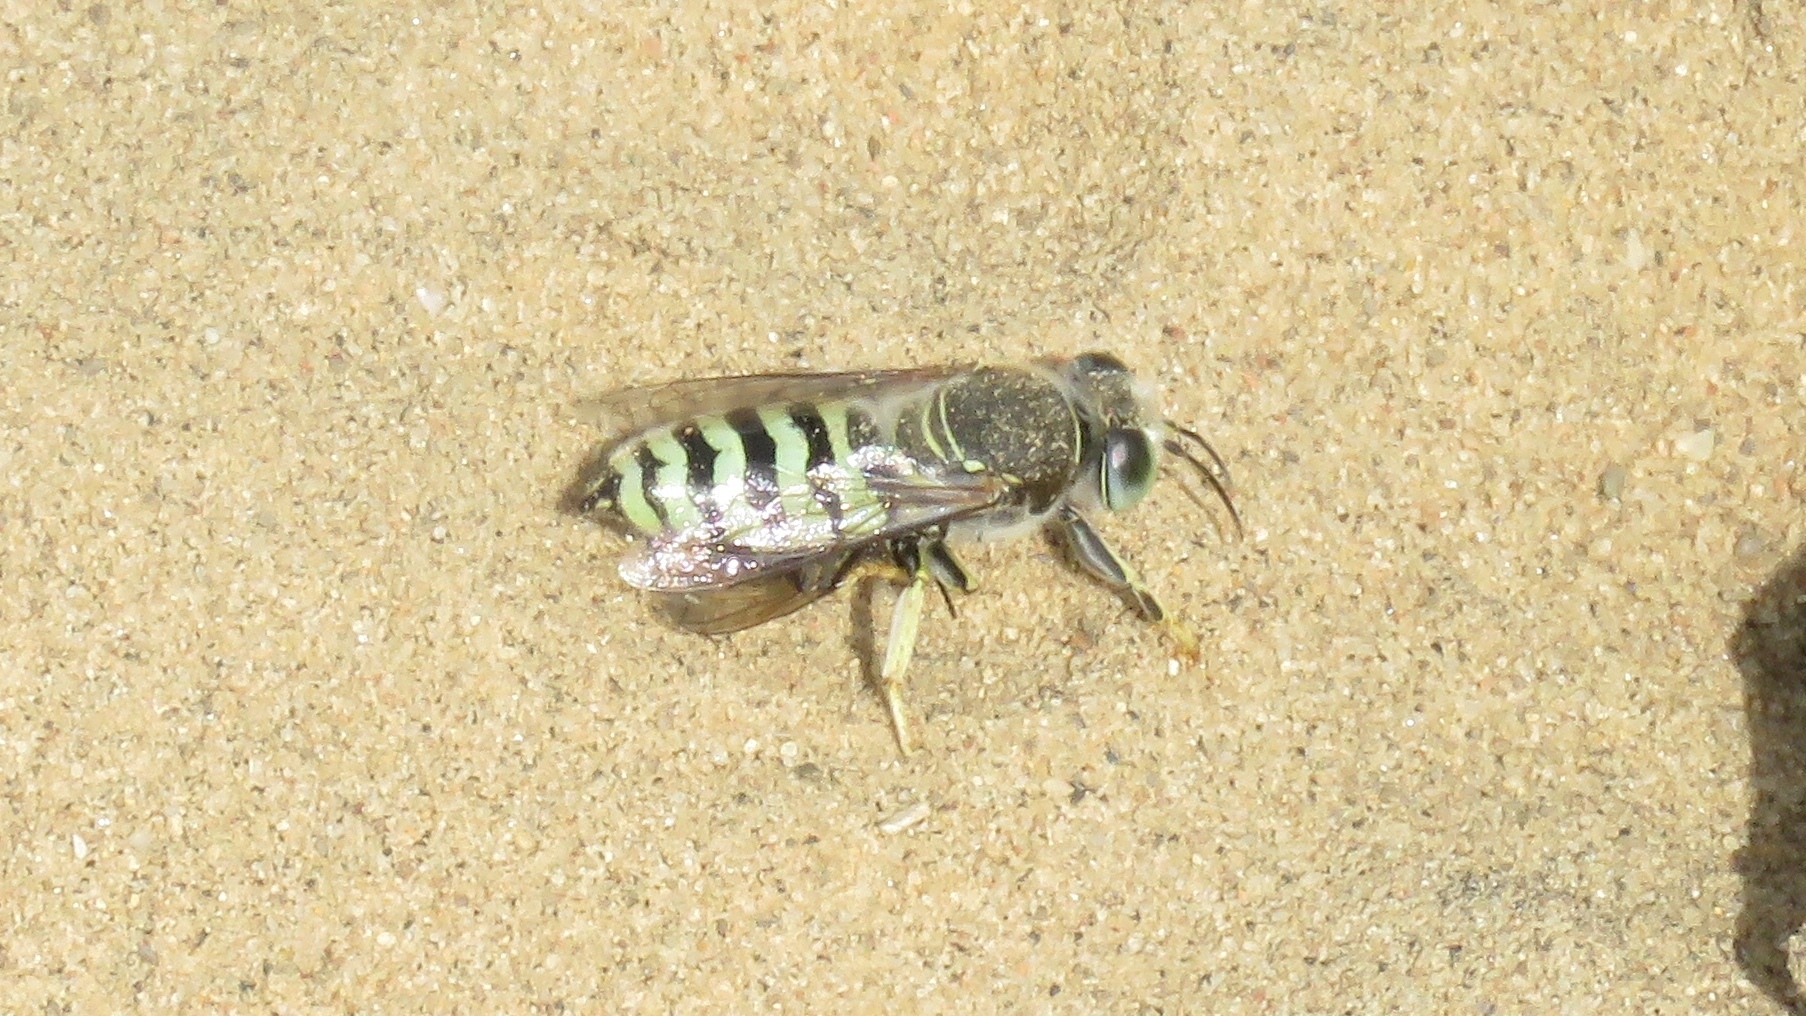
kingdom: Animalia
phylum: Arthropoda
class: Insecta
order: Hymenoptera
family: Crabronidae
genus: Bembix
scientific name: Bembix pallidipicta
